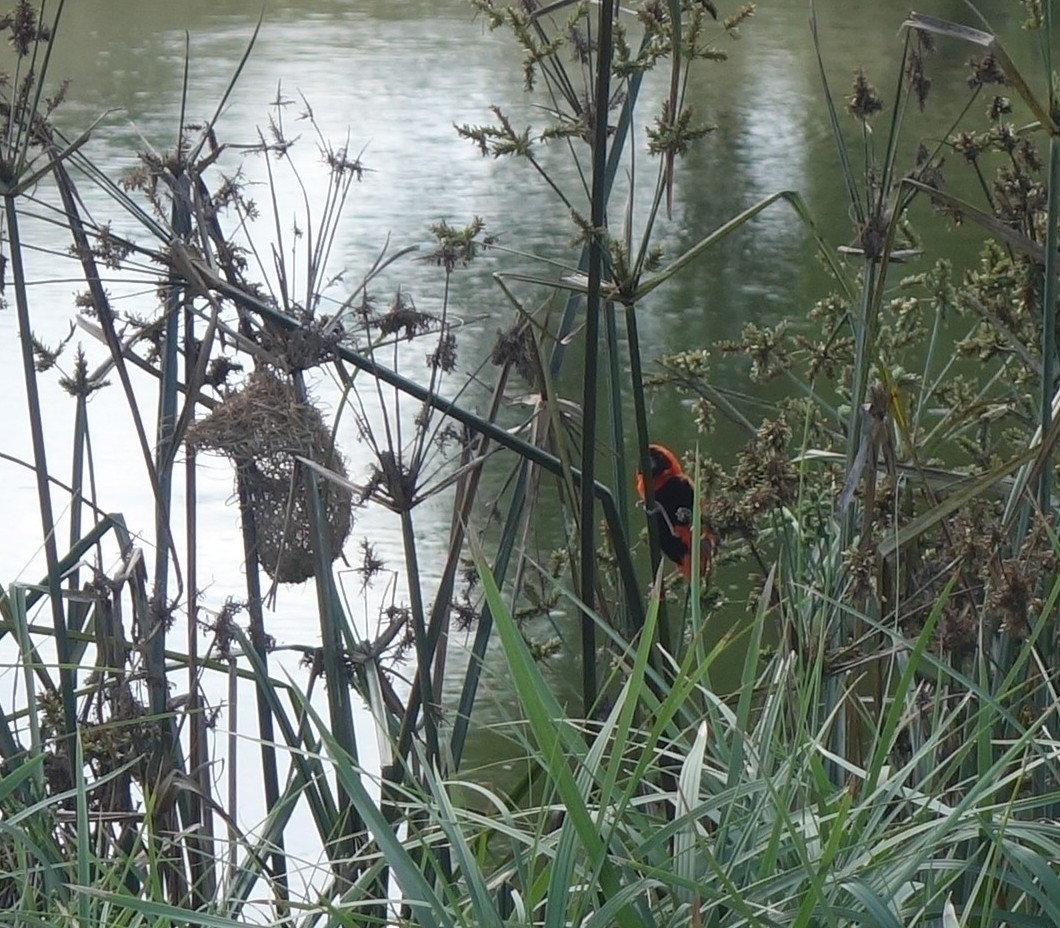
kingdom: Animalia
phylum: Chordata
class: Aves
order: Passeriformes
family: Ploceidae
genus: Euplectes
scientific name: Euplectes orix
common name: Southern red bishop
